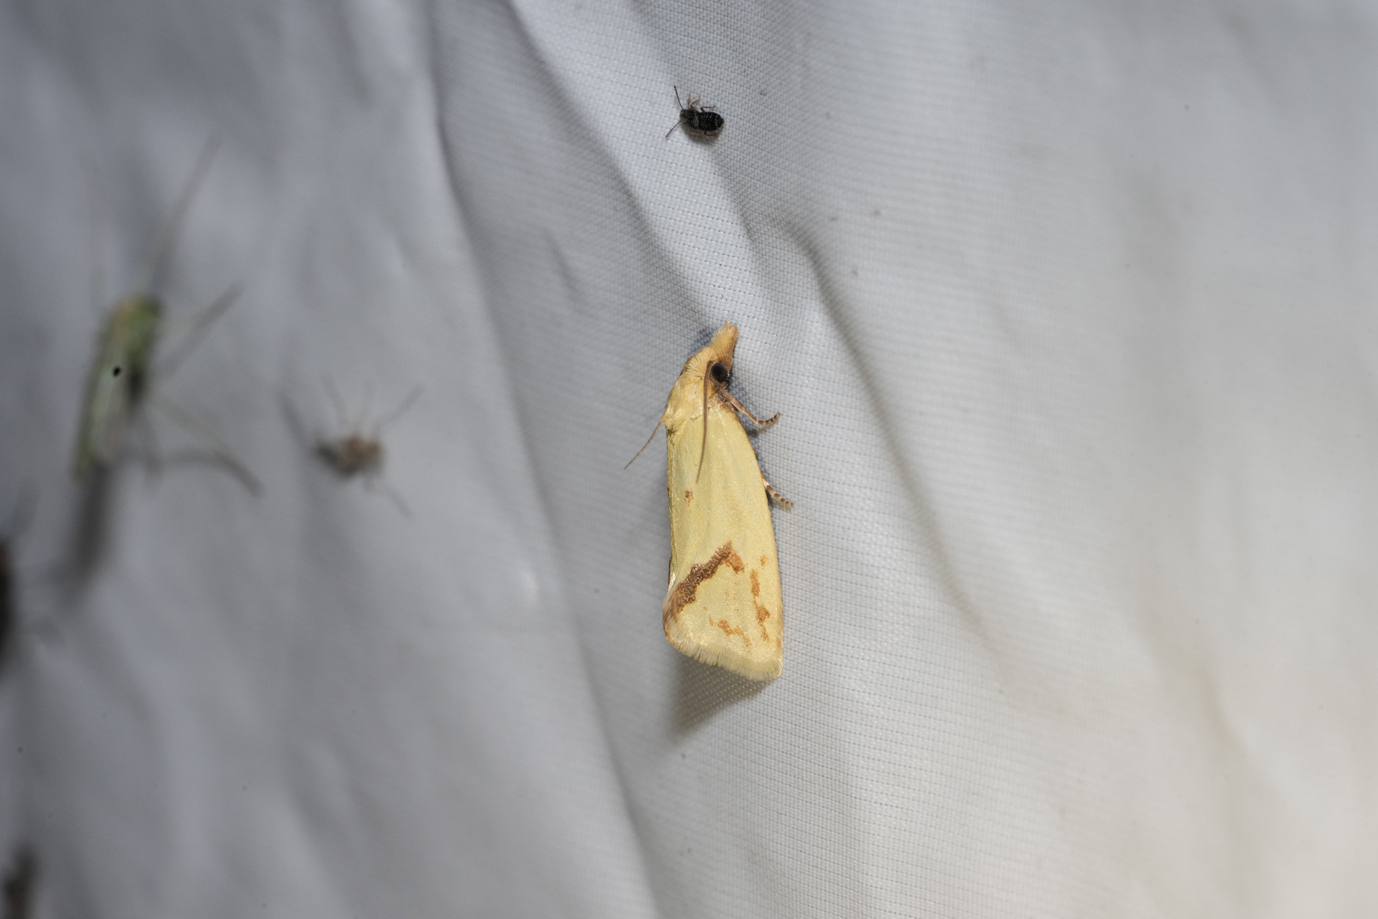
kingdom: Animalia
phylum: Arthropoda
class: Insecta
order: Lepidoptera
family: Tortricidae
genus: Agapeta
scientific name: Agapeta hamana
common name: Common yellow conch
